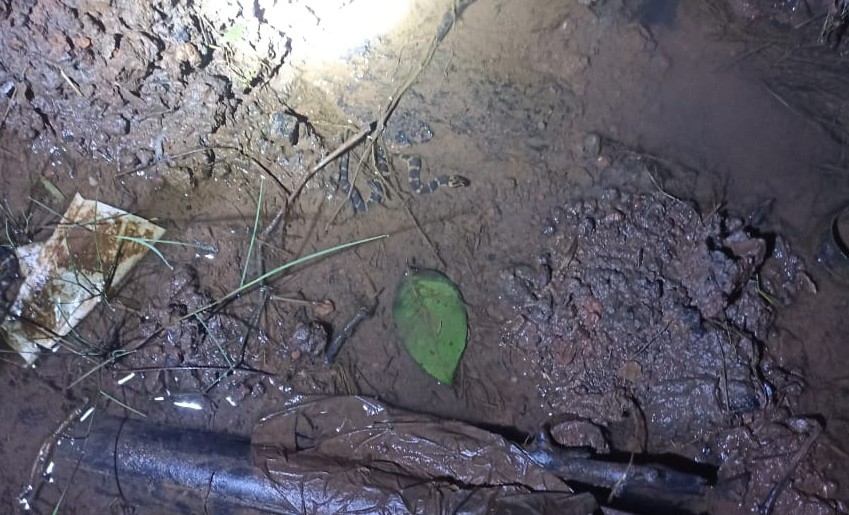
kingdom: Animalia
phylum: Chordata
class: Squamata
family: Homalopsidae
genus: Homalopsis
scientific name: Homalopsis buccata
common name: Masked water snake
